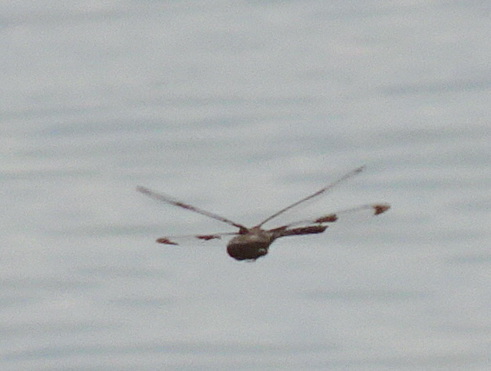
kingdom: Animalia
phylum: Arthropoda
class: Insecta
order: Odonata
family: Corduliidae
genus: Epitheca
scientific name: Epitheca princeps
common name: Prince baskettail
